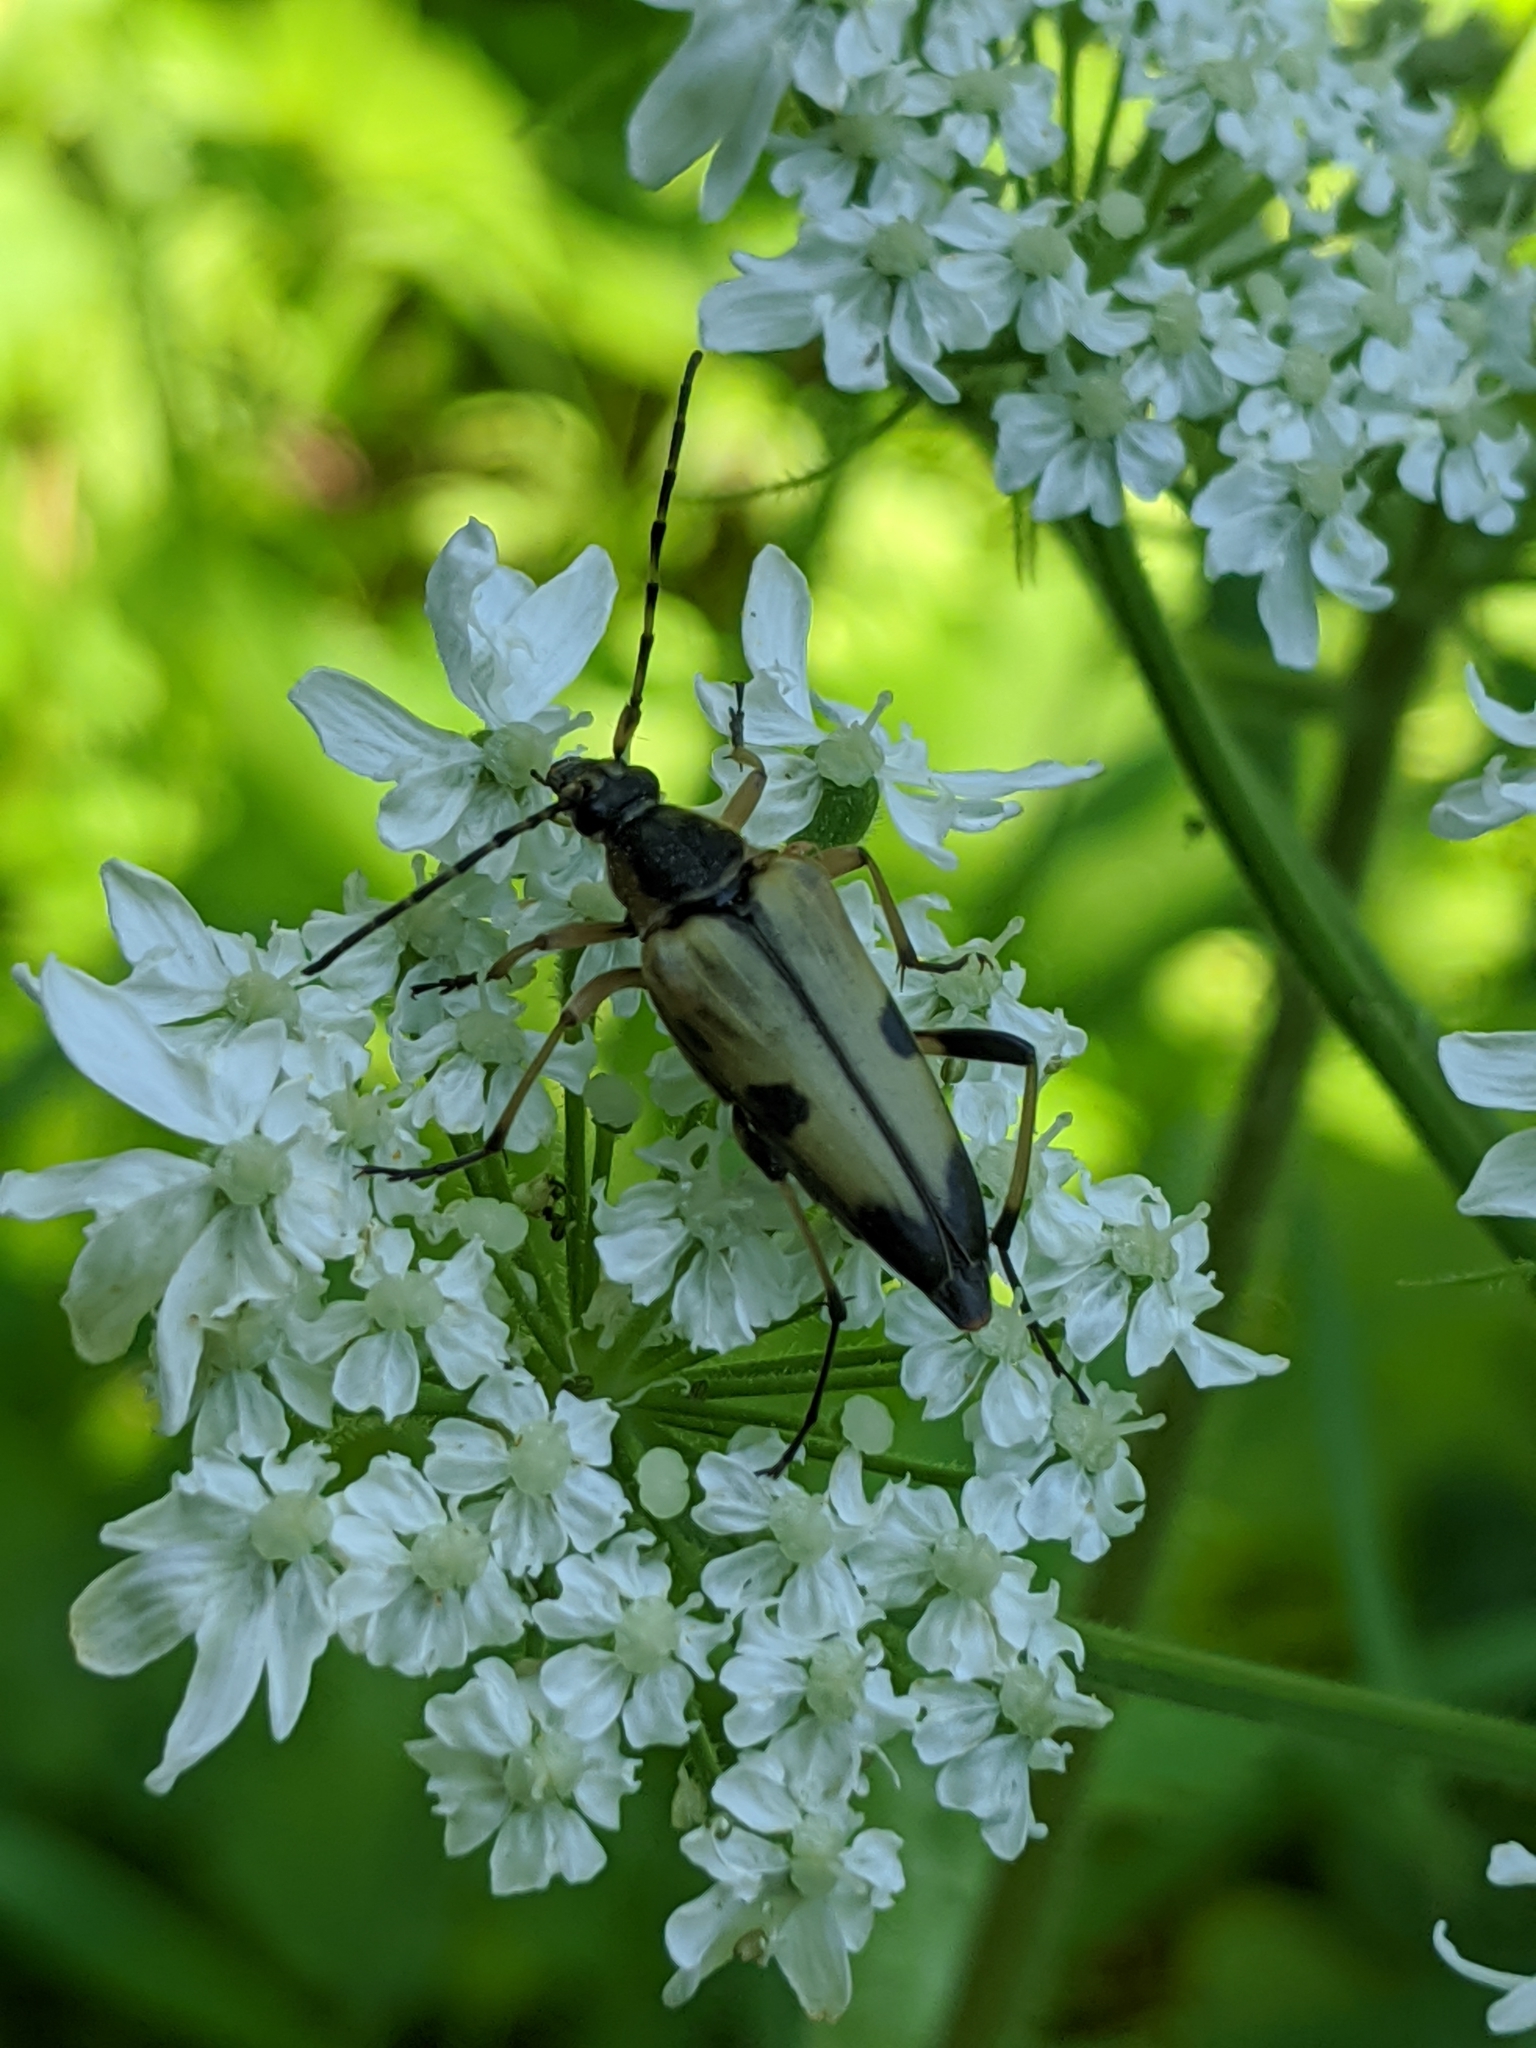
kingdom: Animalia
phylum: Arthropoda
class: Insecta
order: Coleoptera
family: Cerambycidae
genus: Etorofus
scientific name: Etorofus obliteratus
